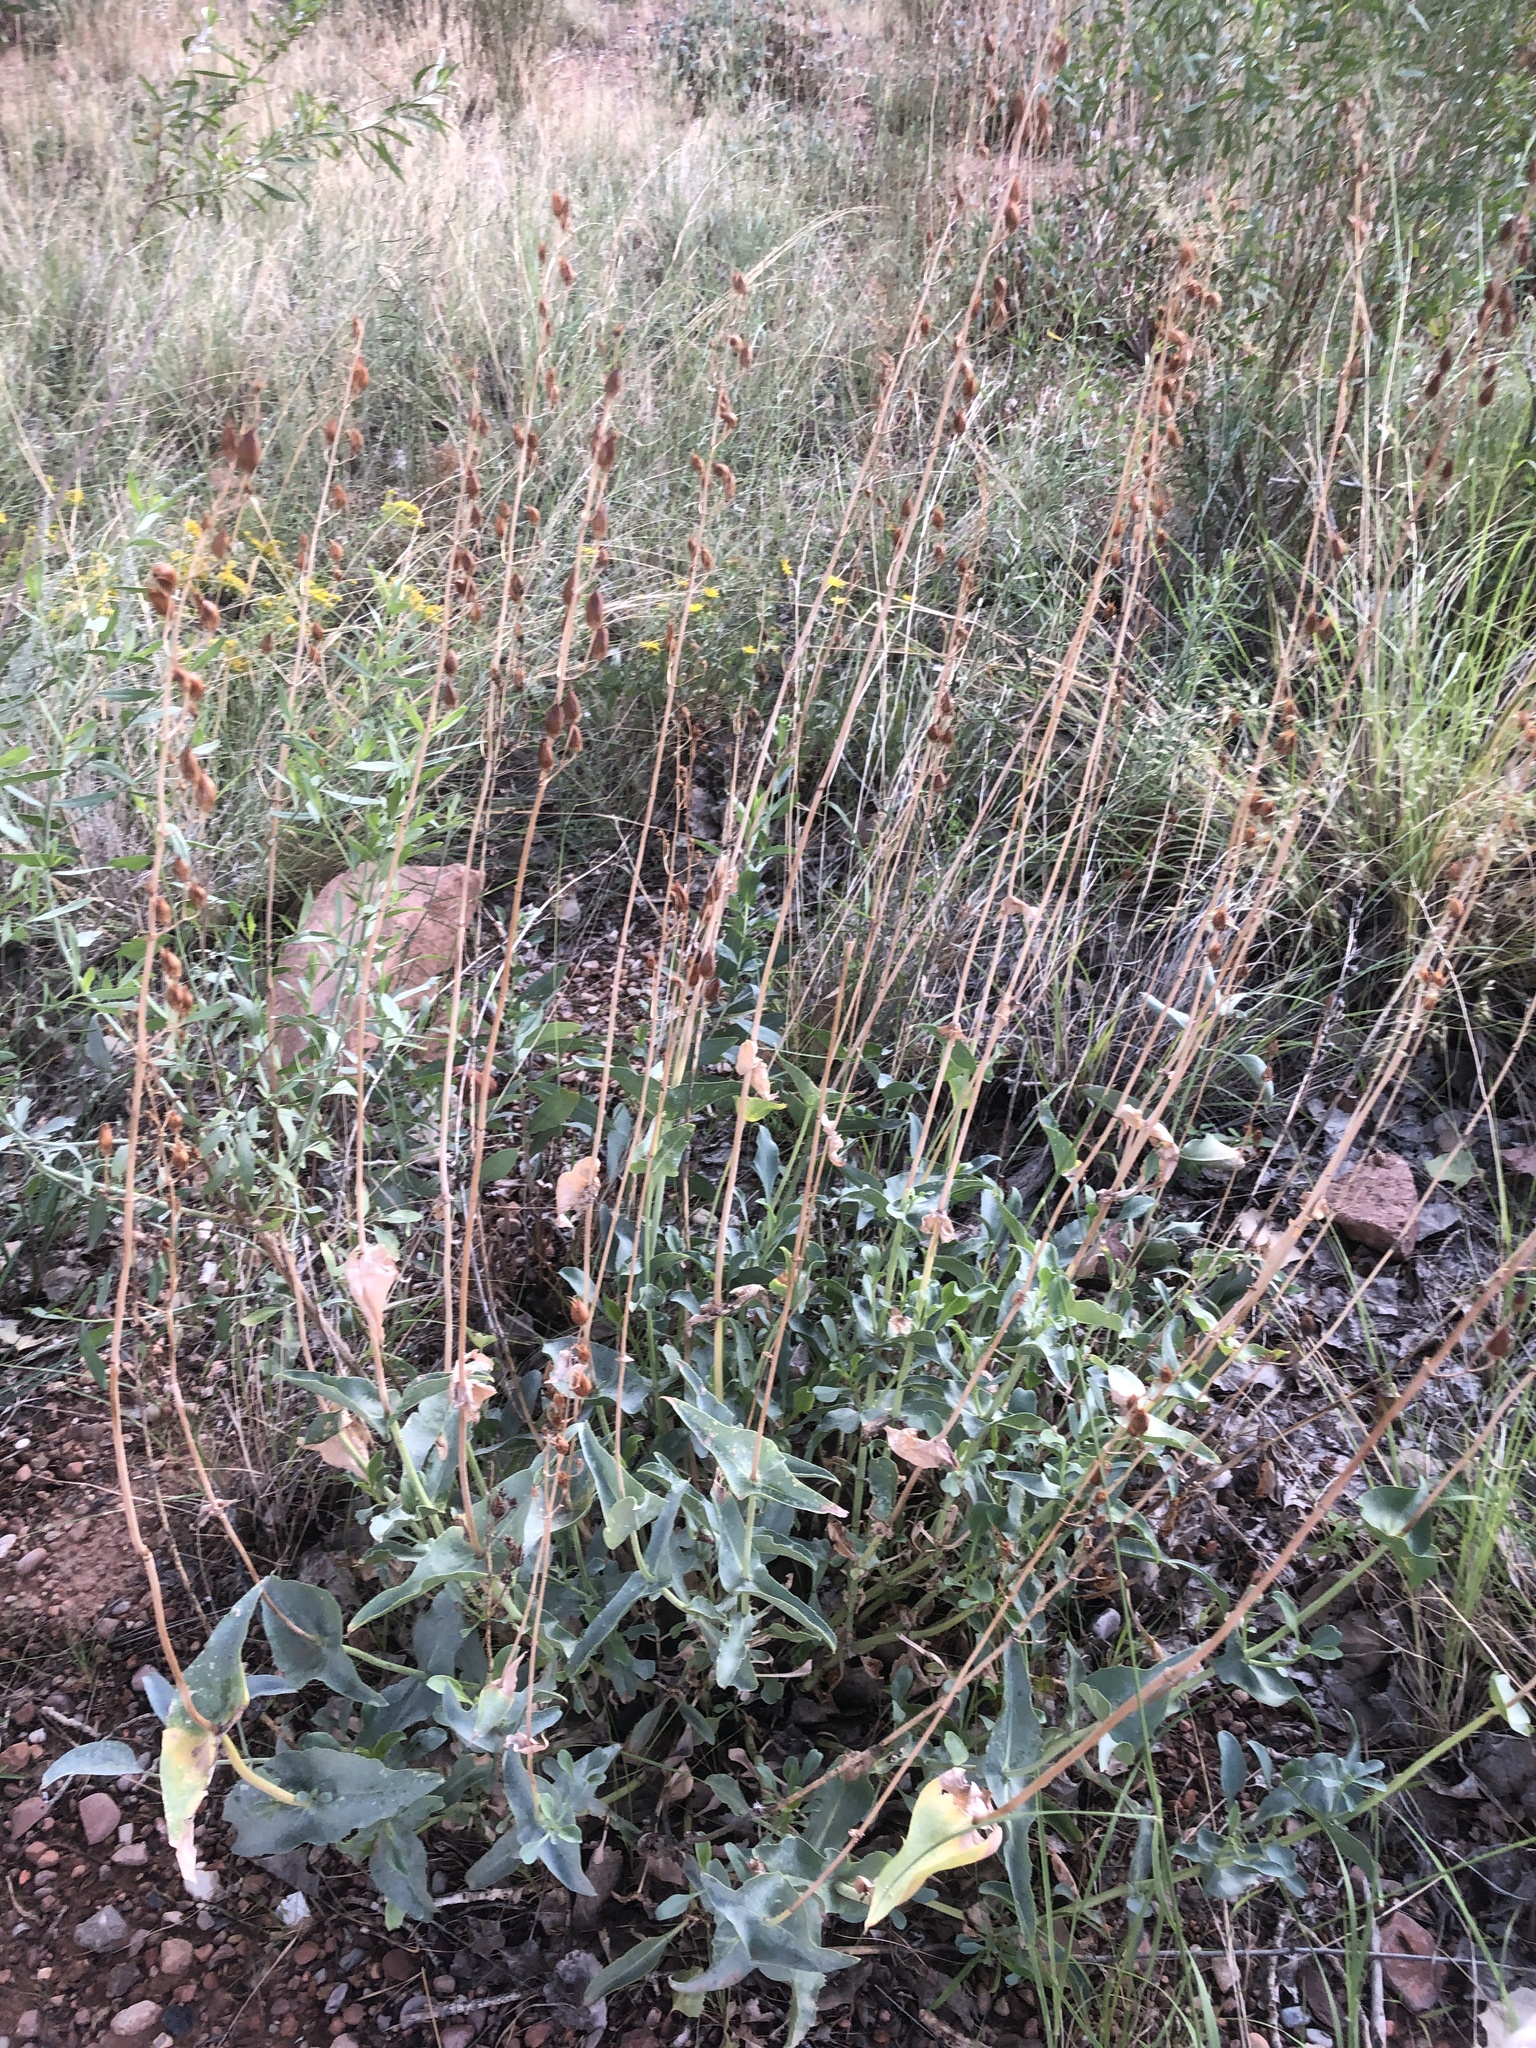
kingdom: Plantae
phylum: Tracheophyta
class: Magnoliopsida
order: Lamiales
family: Plantaginaceae
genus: Penstemon
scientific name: Penstemon palmeri
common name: Palmer penstemon
